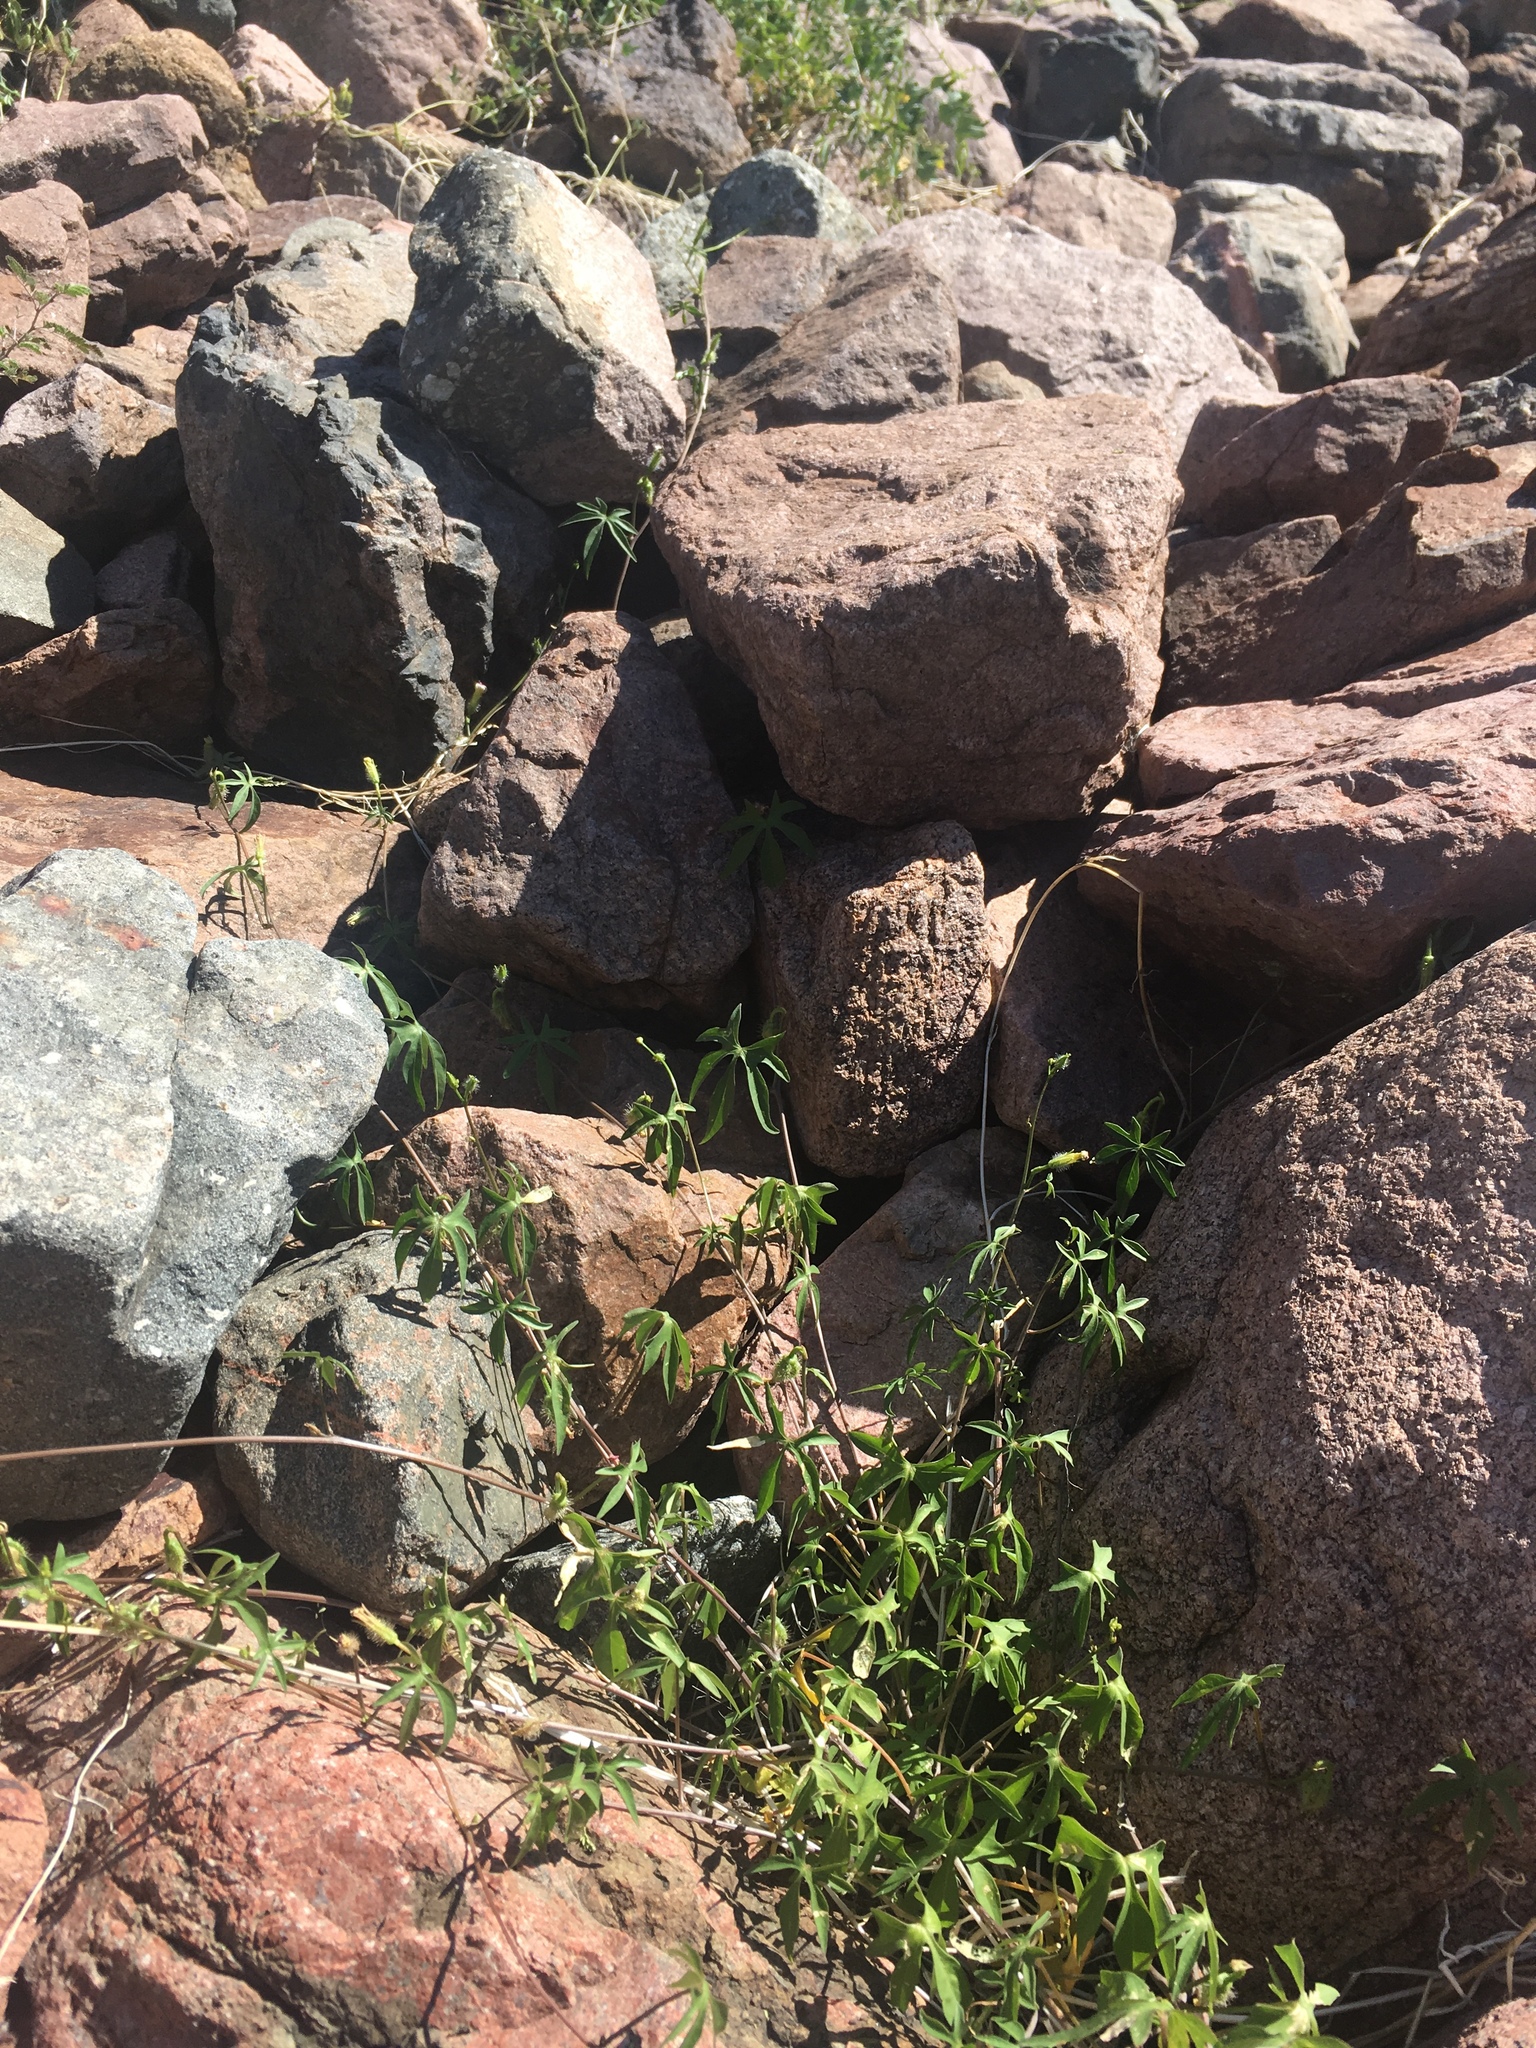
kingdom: Plantae
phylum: Tracheophyta
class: Magnoliopsida
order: Solanales
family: Convolvulaceae
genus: Ipomoea
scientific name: Ipomoea barbatisepala
